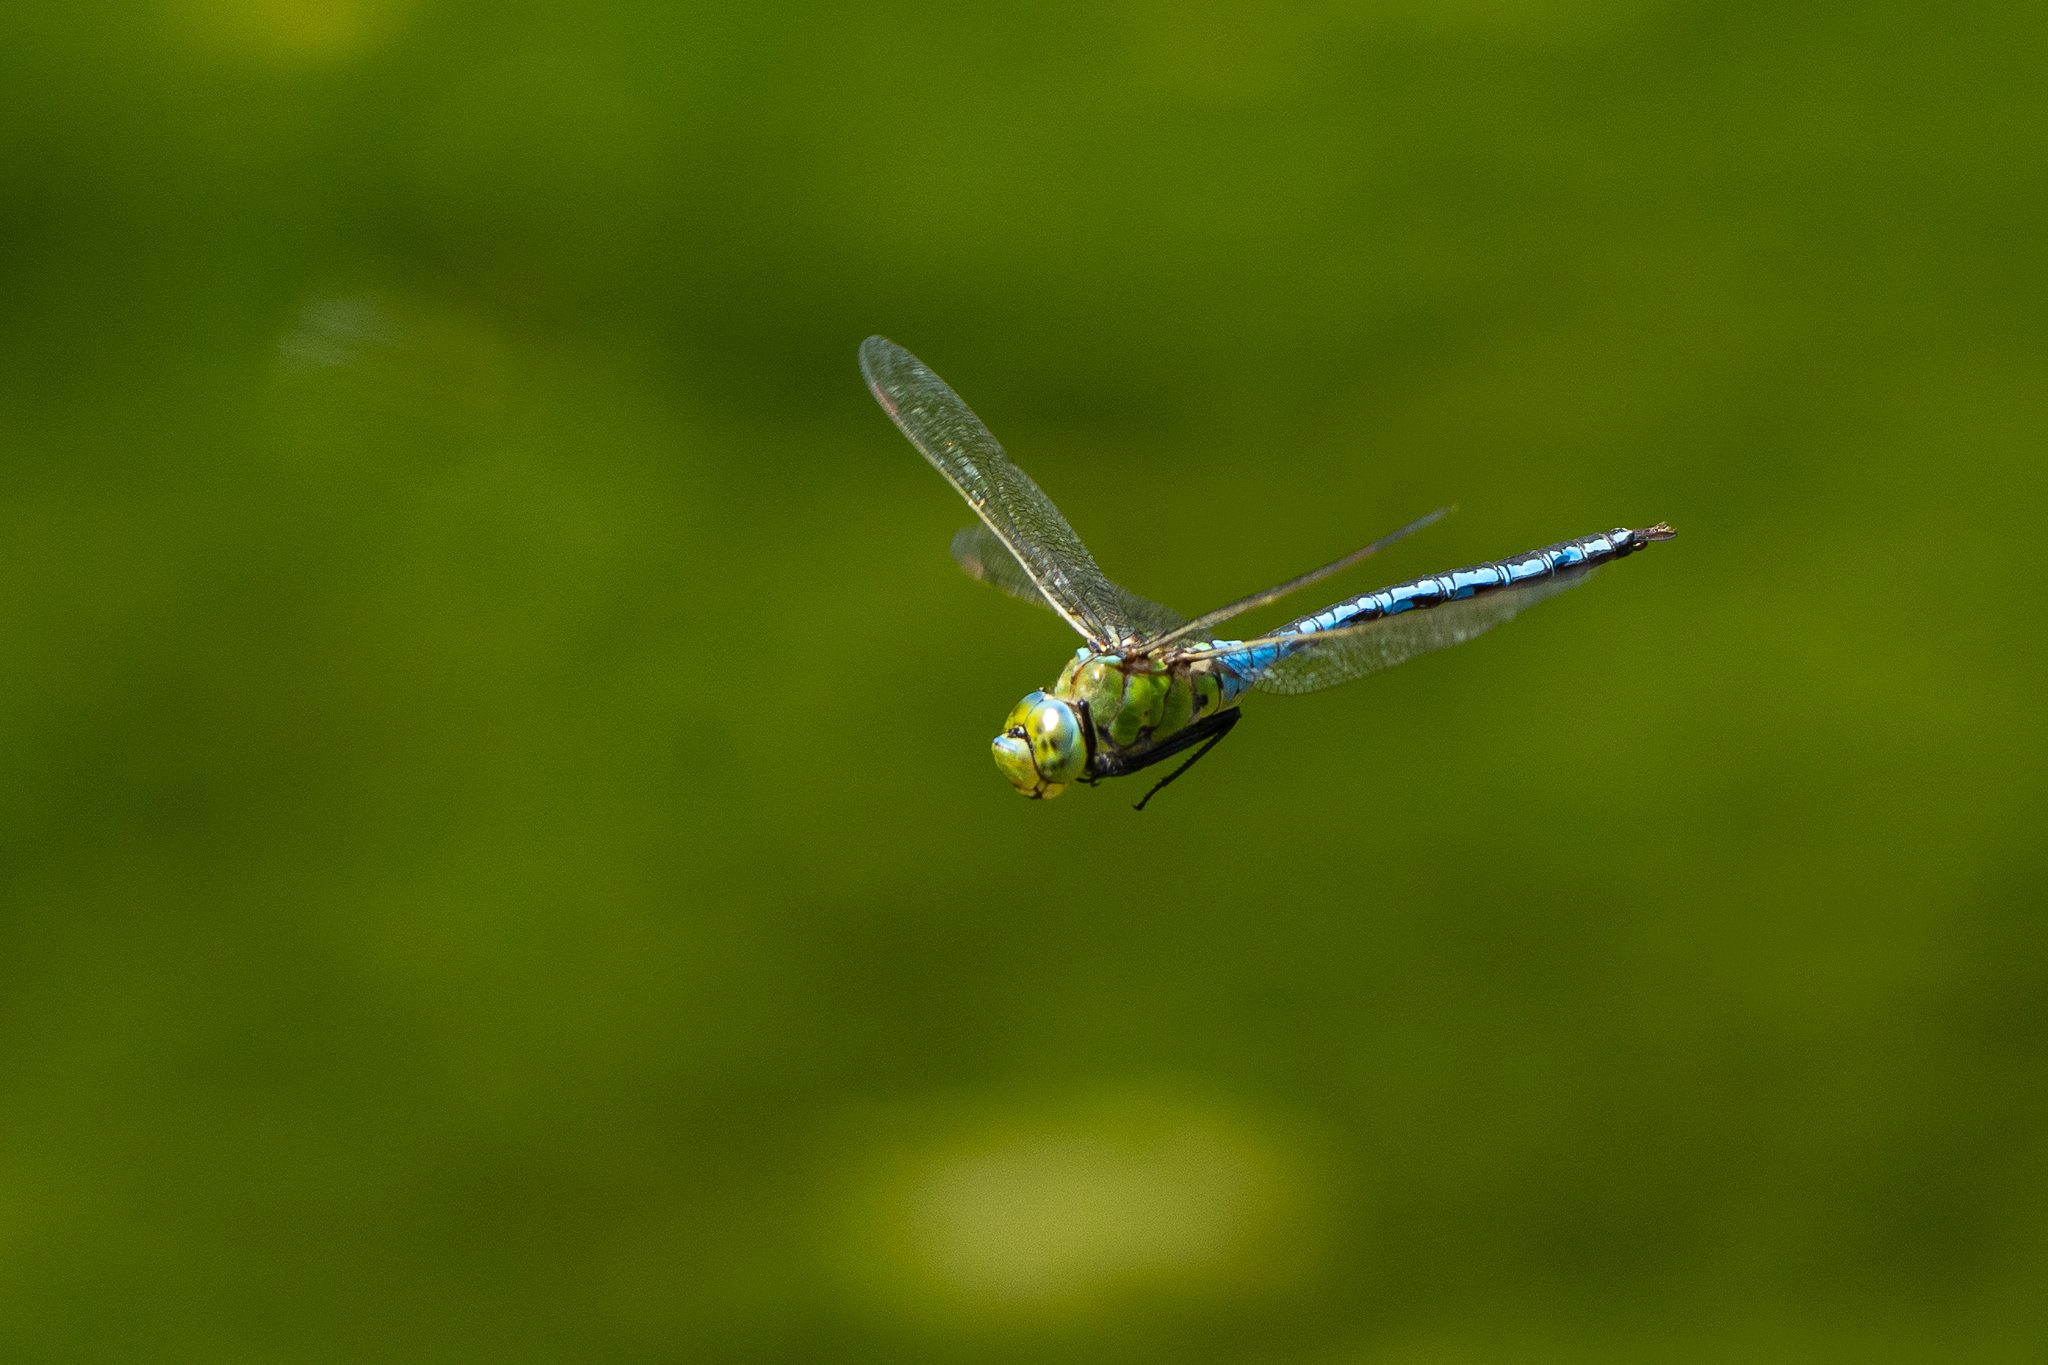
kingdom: Animalia
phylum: Arthropoda
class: Insecta
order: Odonata
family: Aeshnidae
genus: Anax
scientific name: Anax imperator
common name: Emperor dragonfly
